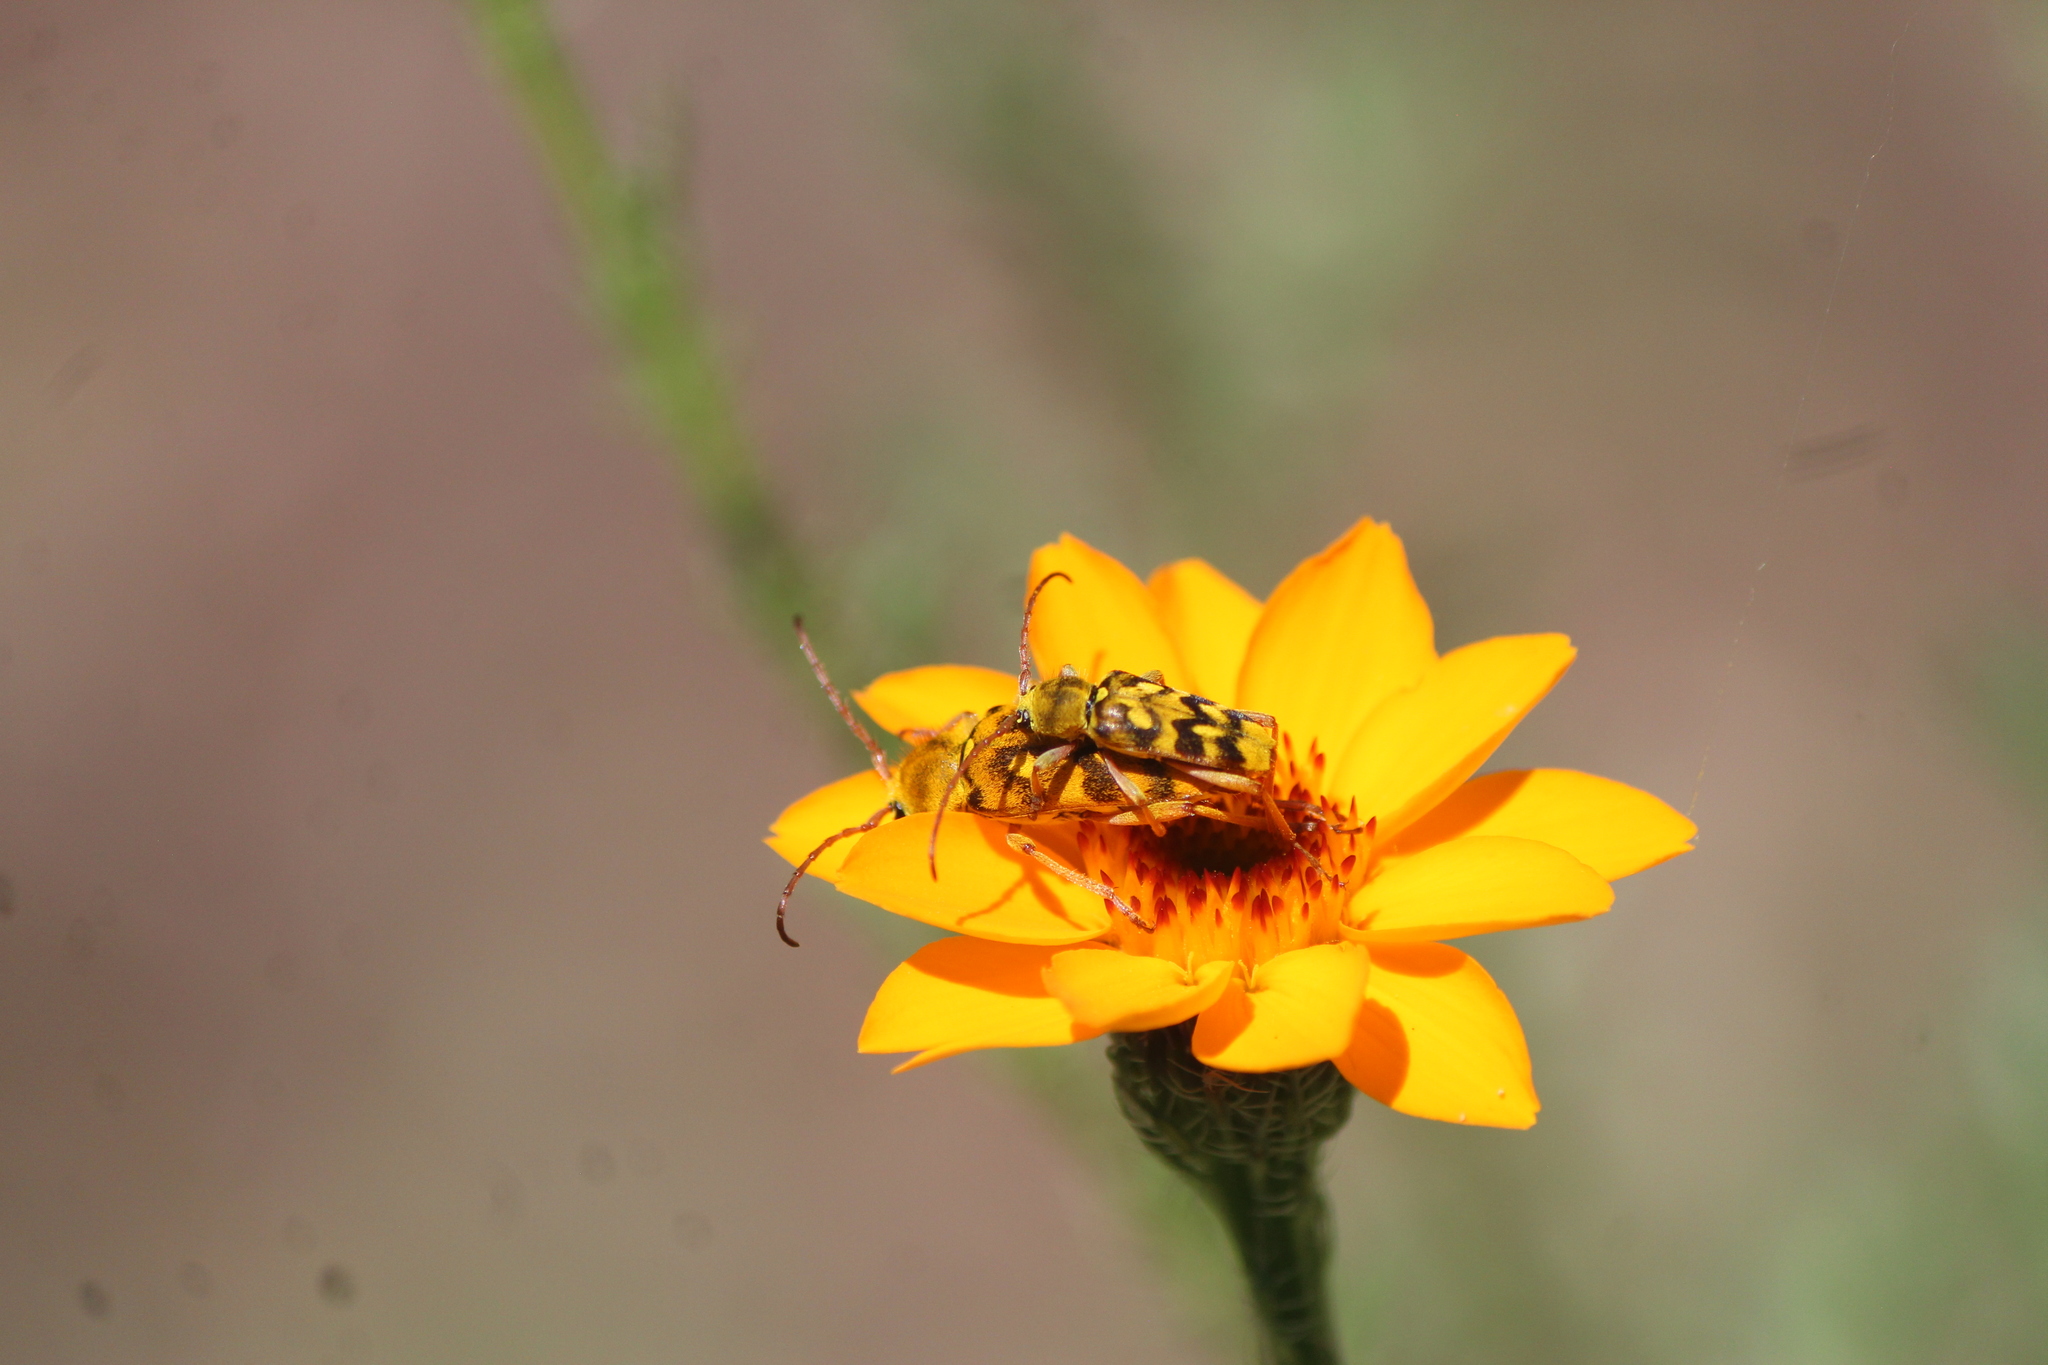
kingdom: Animalia
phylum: Arthropoda
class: Insecta
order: Coleoptera
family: Cerambycidae
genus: Ochraethes
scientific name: Ochraethes sommeri
